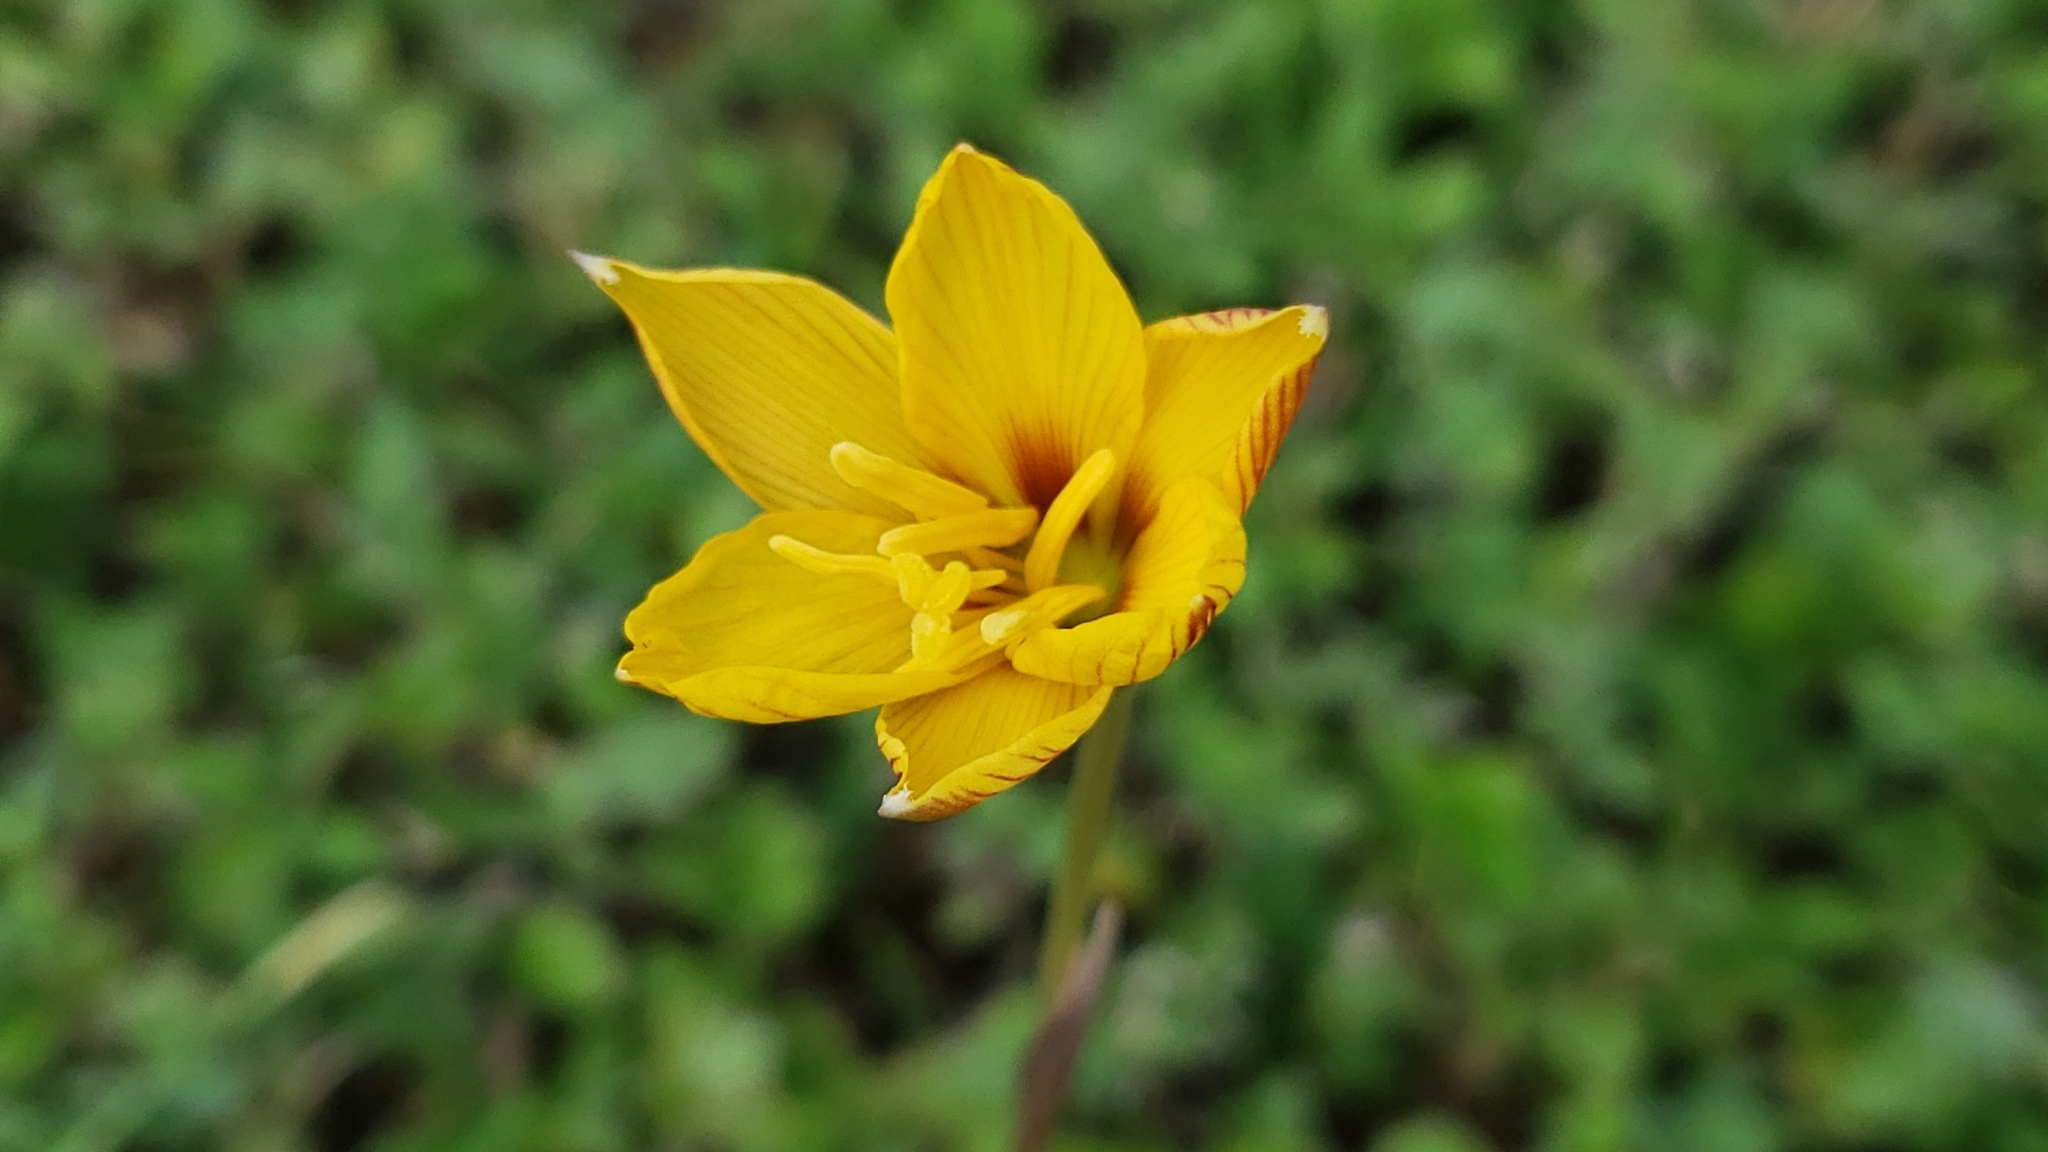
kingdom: Plantae
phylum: Tracheophyta
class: Liliopsida
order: Asparagales
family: Amaryllidaceae
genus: Zephyranthes
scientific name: Zephyranthes tubispatha
